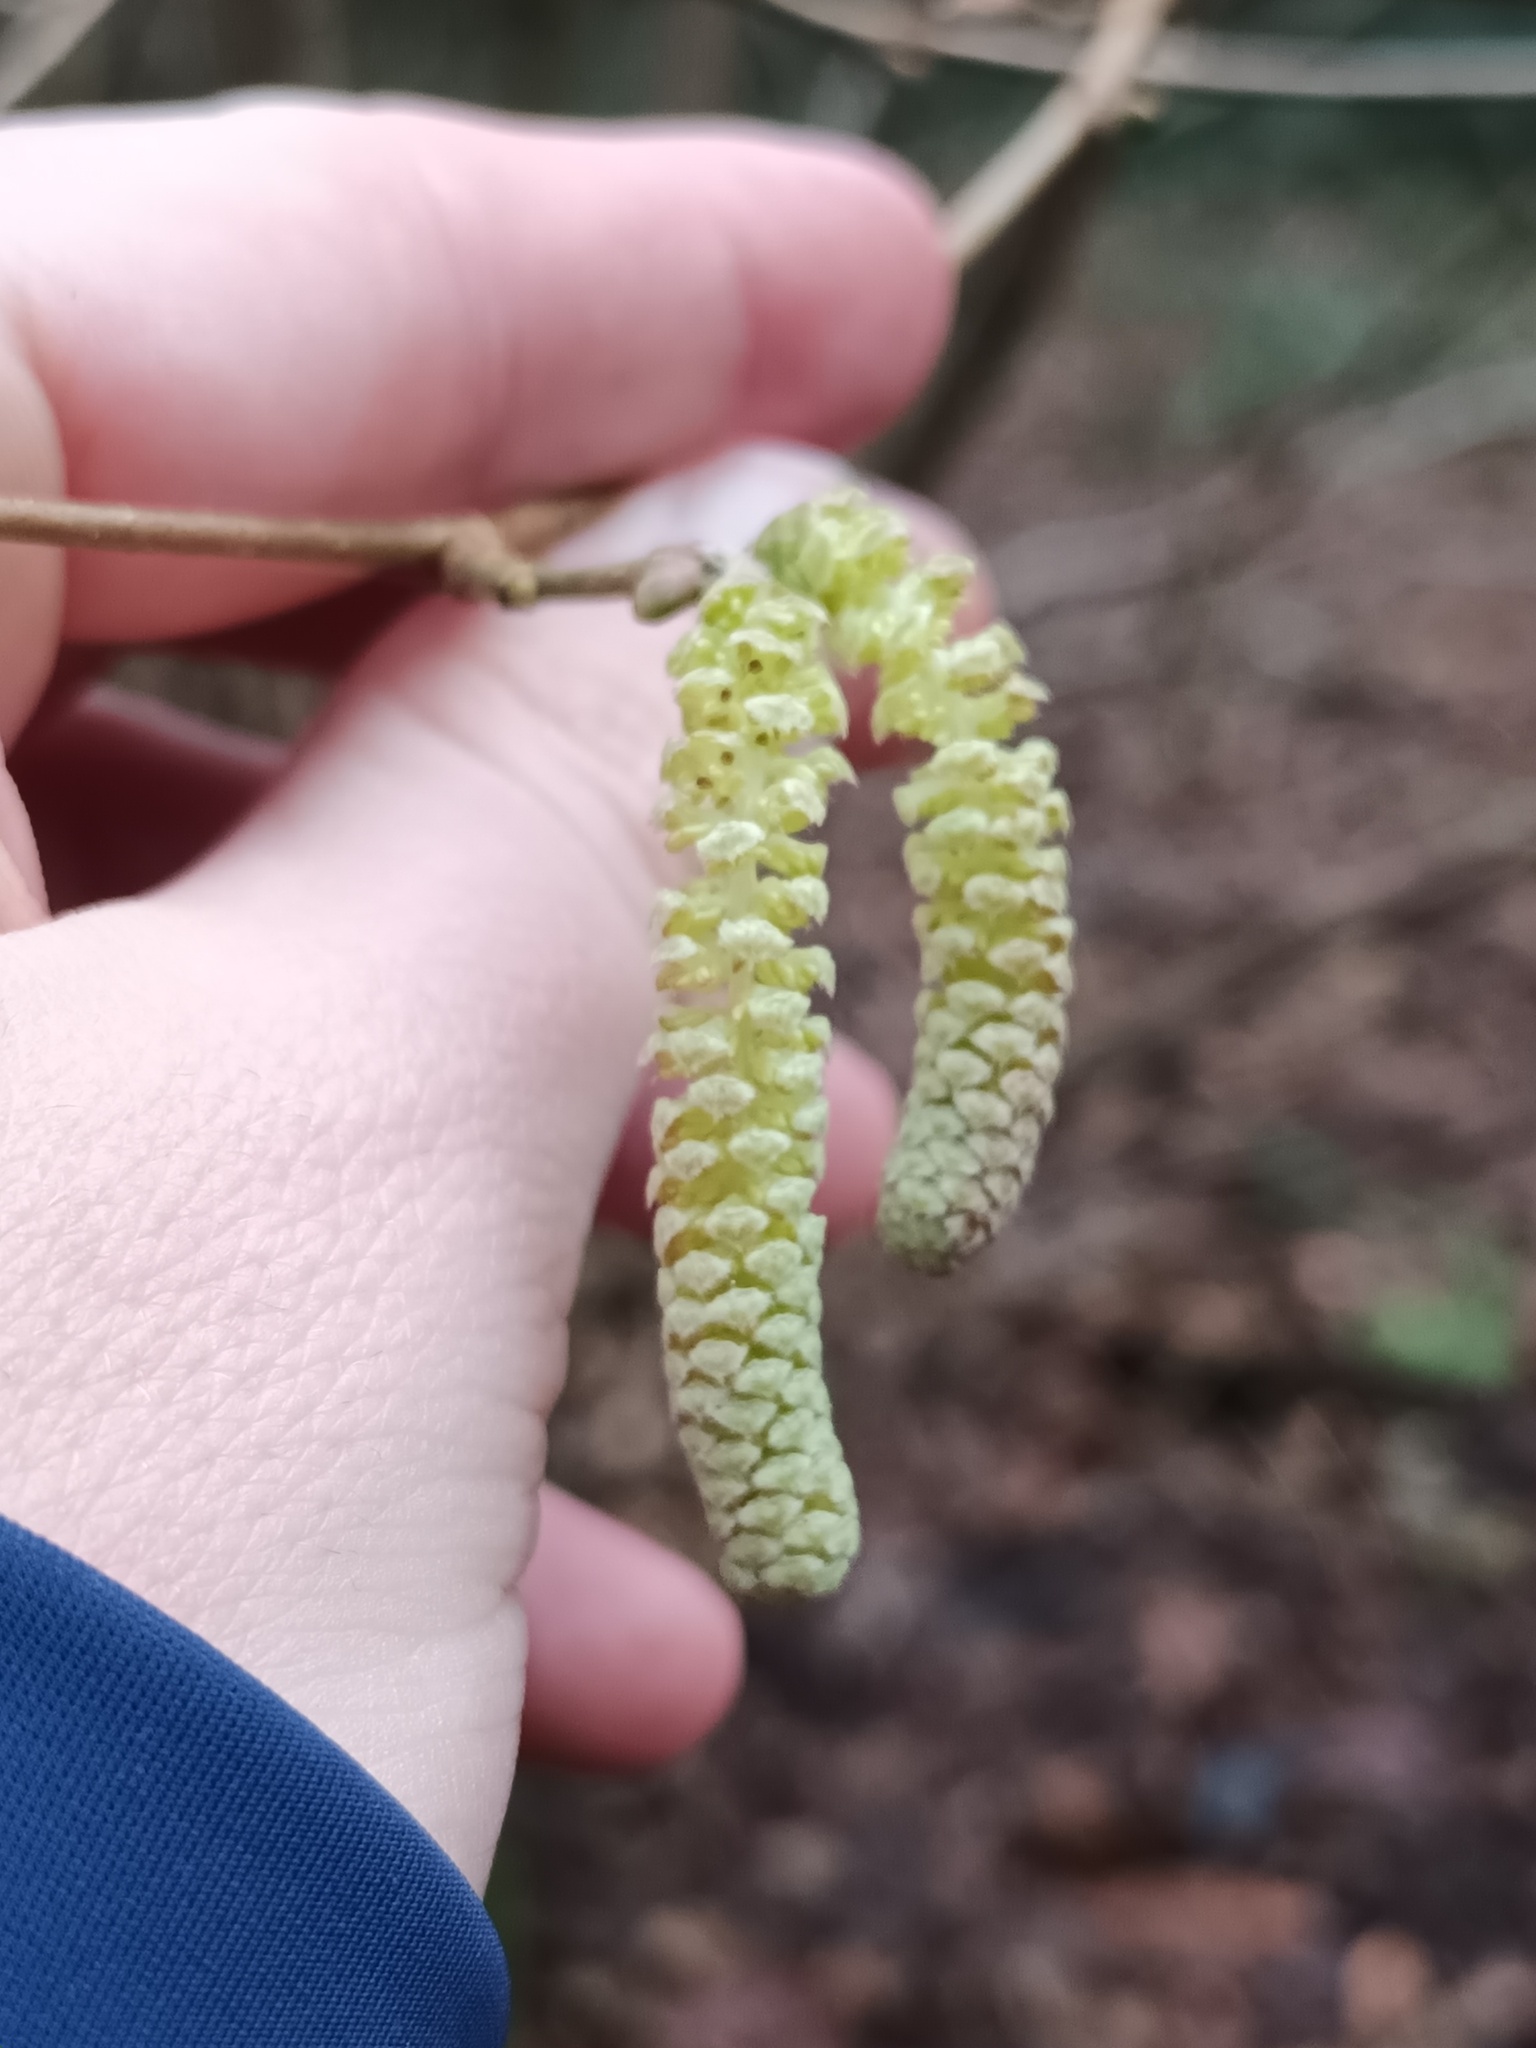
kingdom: Plantae
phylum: Tracheophyta
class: Magnoliopsida
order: Fagales
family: Betulaceae
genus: Corylus
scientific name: Corylus avellana
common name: European hazel
